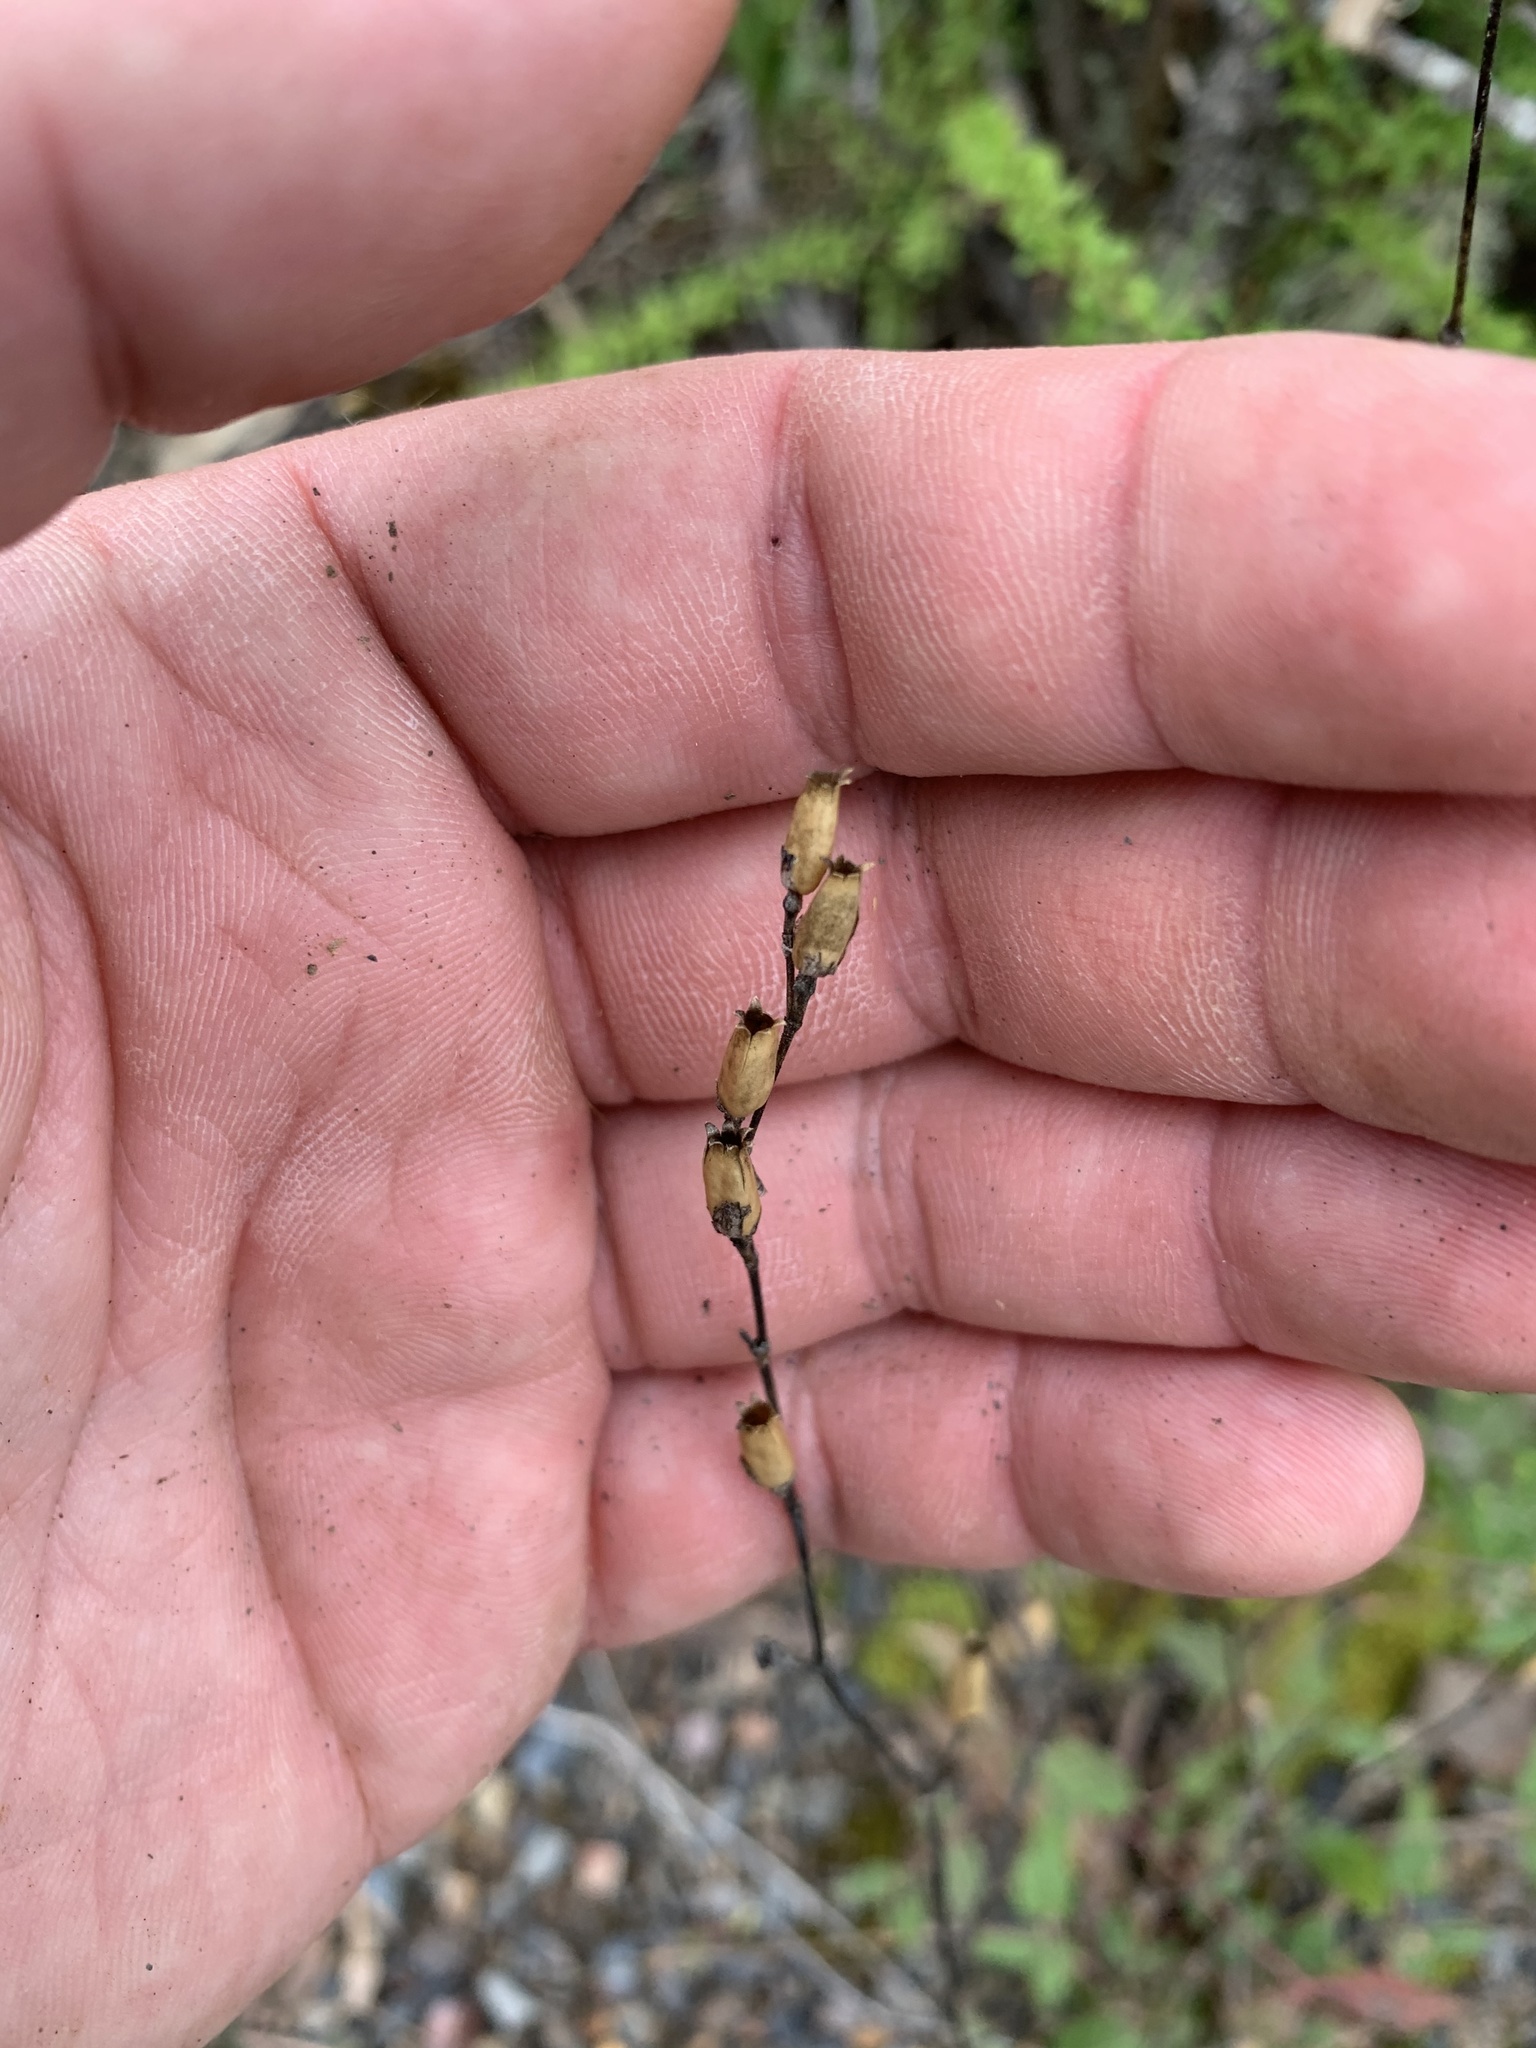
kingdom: Plantae
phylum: Tracheophyta
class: Magnoliopsida
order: Caryophyllales
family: Nyctaginaceae
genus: Boerhavia
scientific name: Boerhavia dominii
